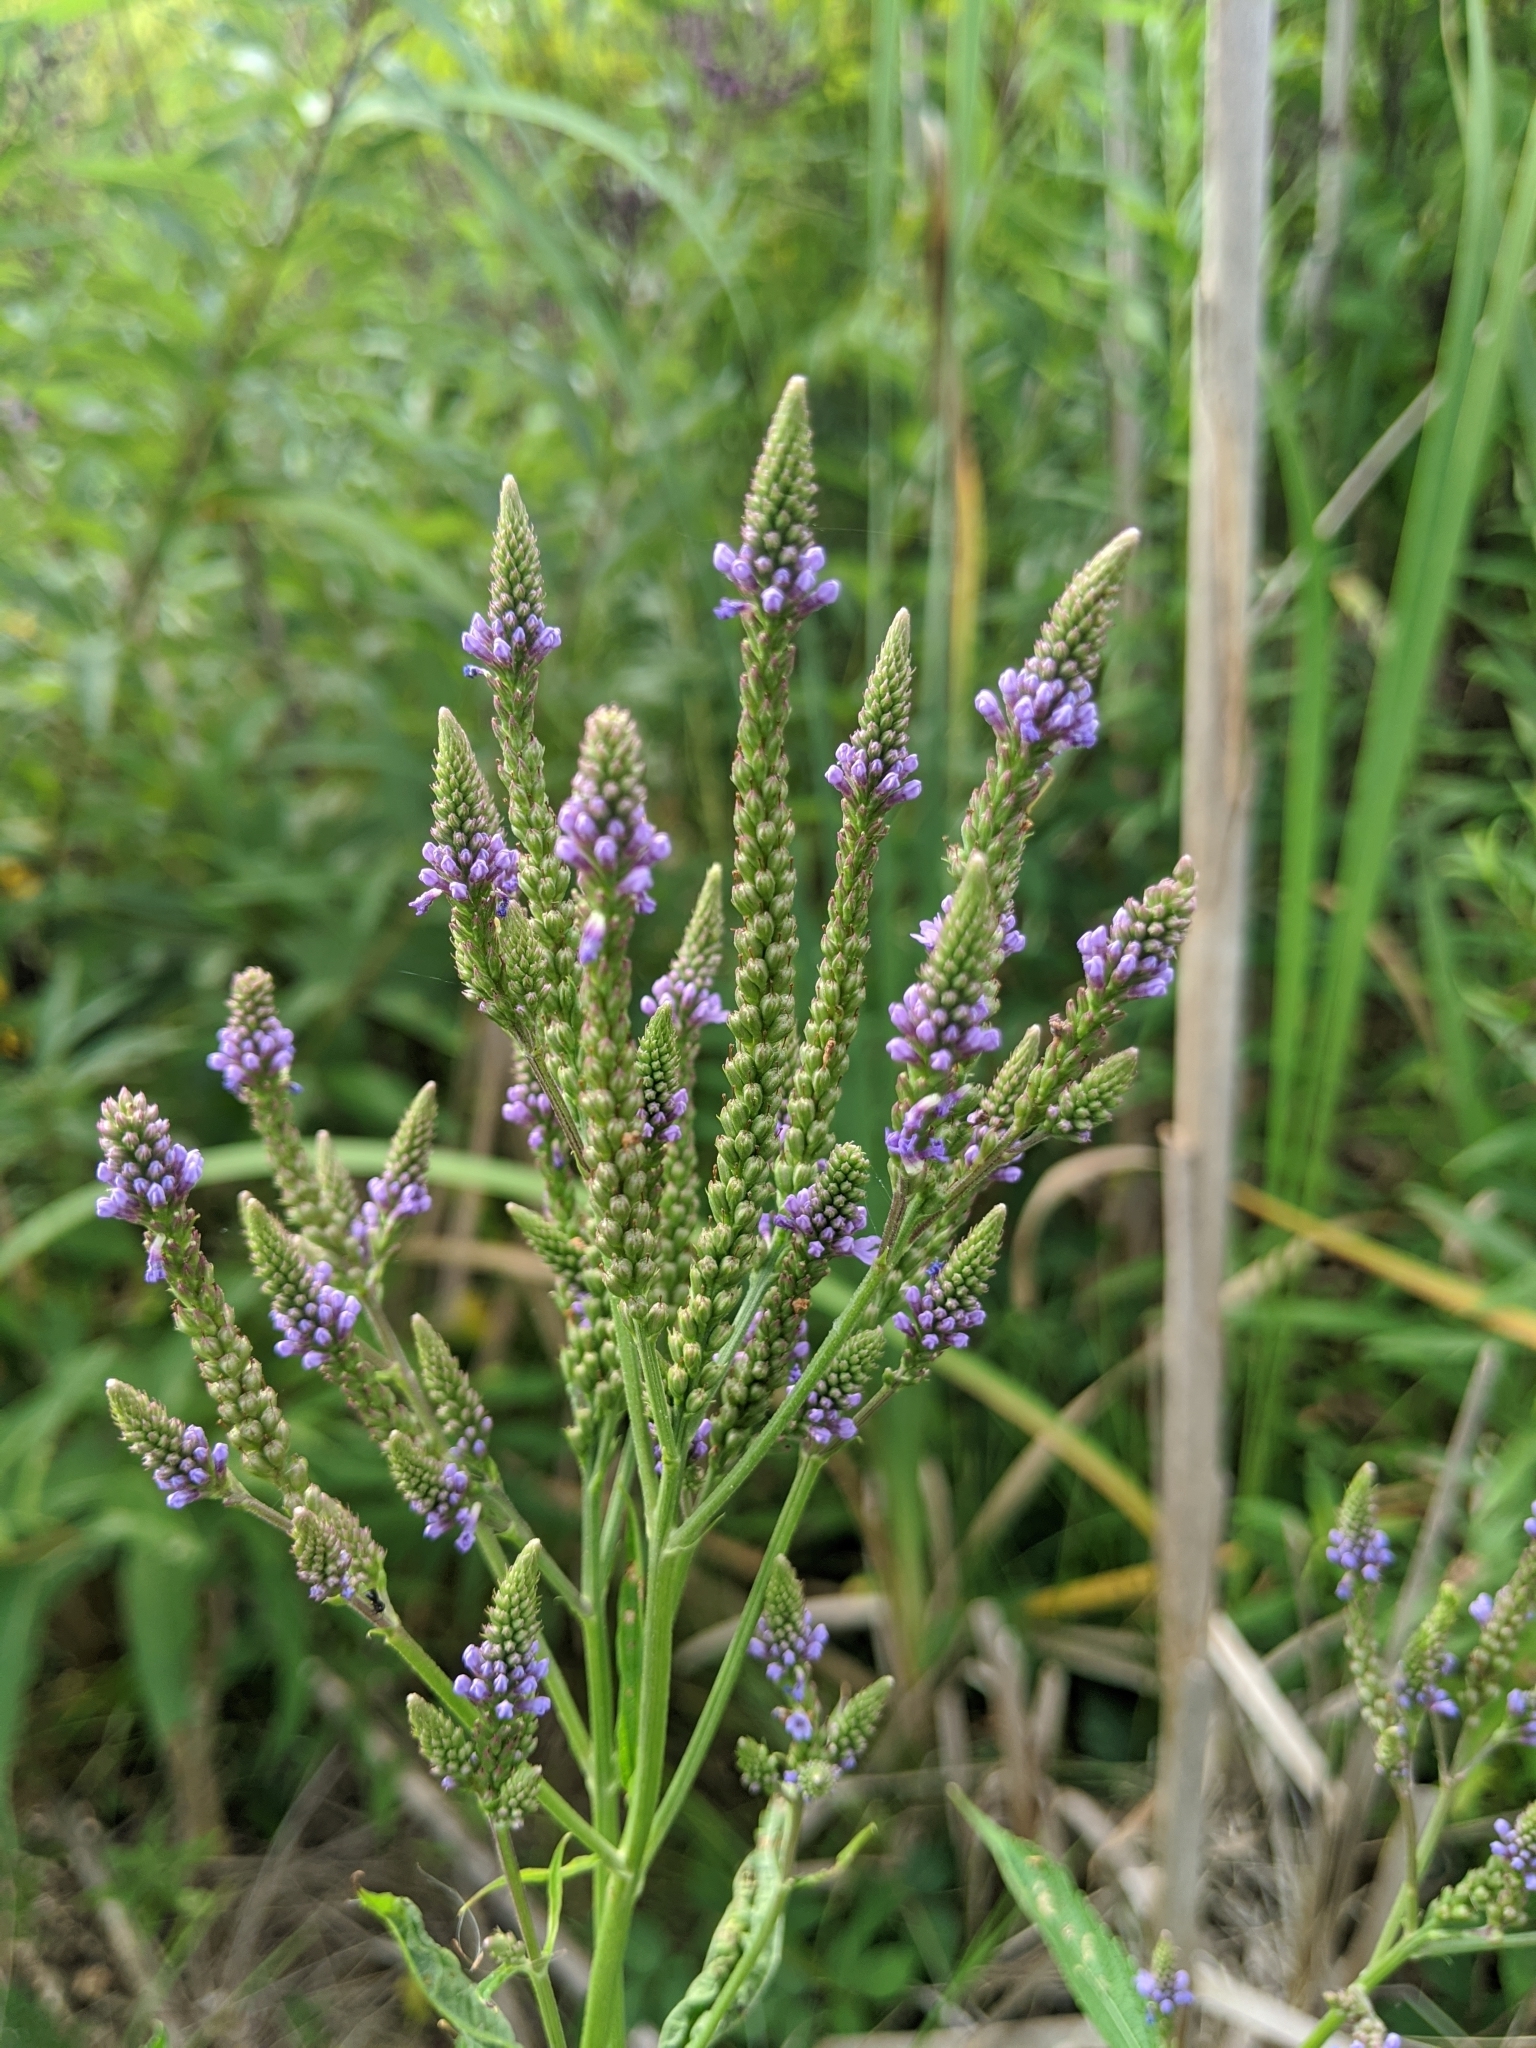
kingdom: Plantae
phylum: Tracheophyta
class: Magnoliopsida
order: Lamiales
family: Verbenaceae
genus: Verbena
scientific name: Verbena hastata
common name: American blue vervain
